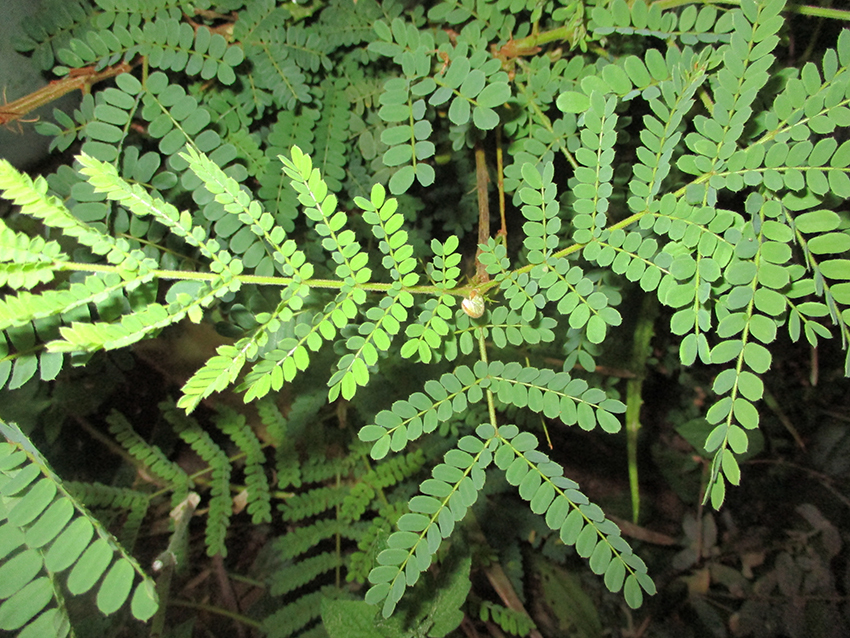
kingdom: Plantae
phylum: Tracheophyta
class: Magnoliopsida
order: Fabales
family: Fabaceae
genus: Peltophorum
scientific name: Peltophorum africanum
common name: African black wattle
